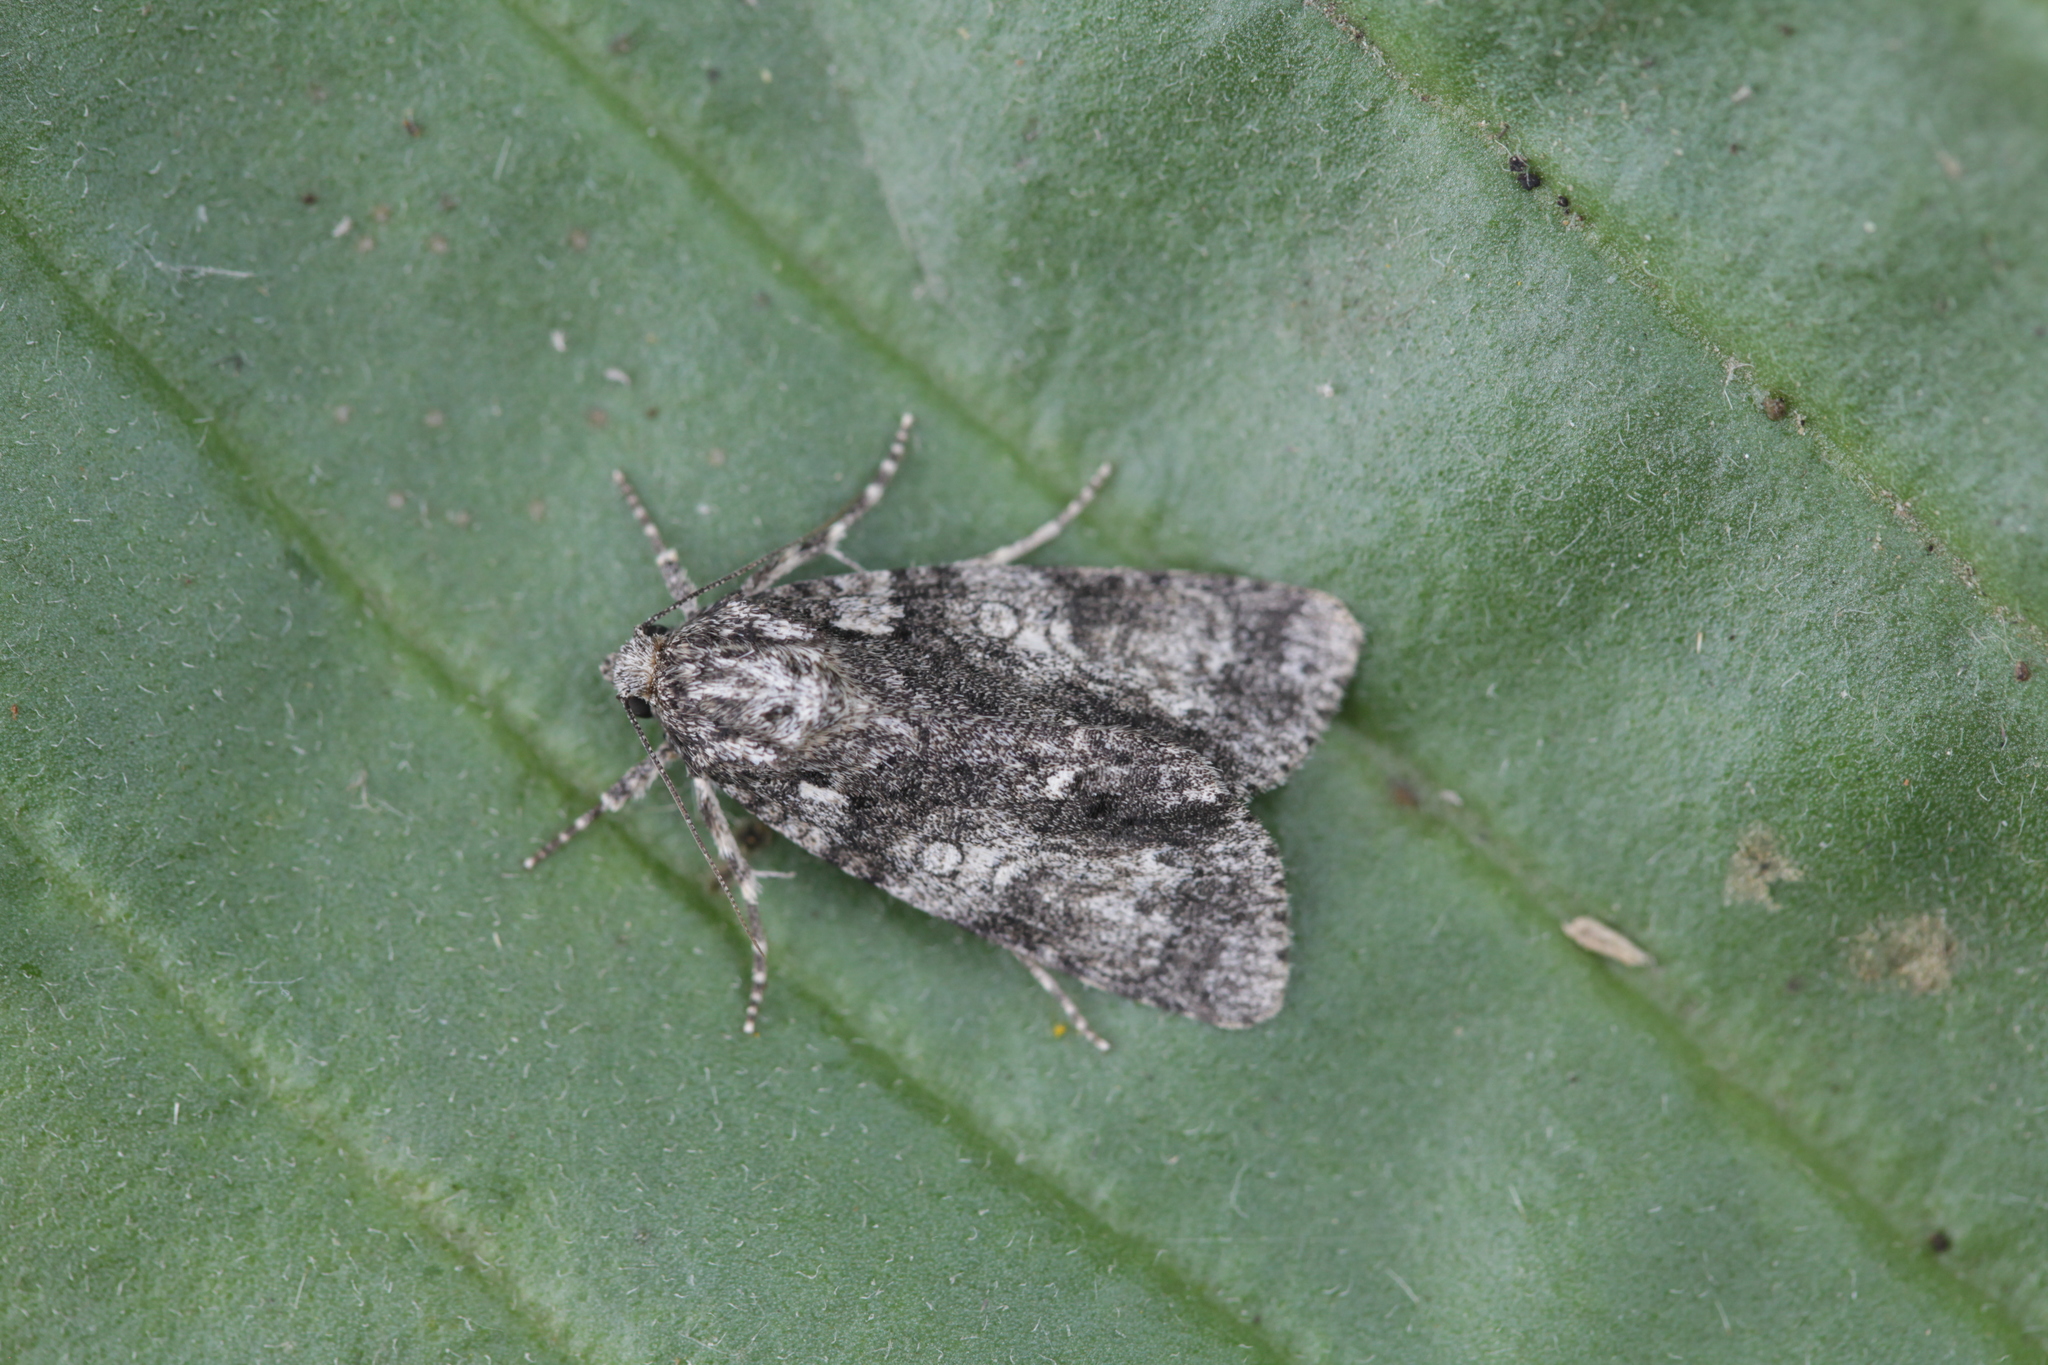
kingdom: Animalia
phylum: Arthropoda
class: Insecta
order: Lepidoptera
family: Noctuidae
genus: Acronicta
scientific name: Acronicta rumicis
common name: Knot grass
